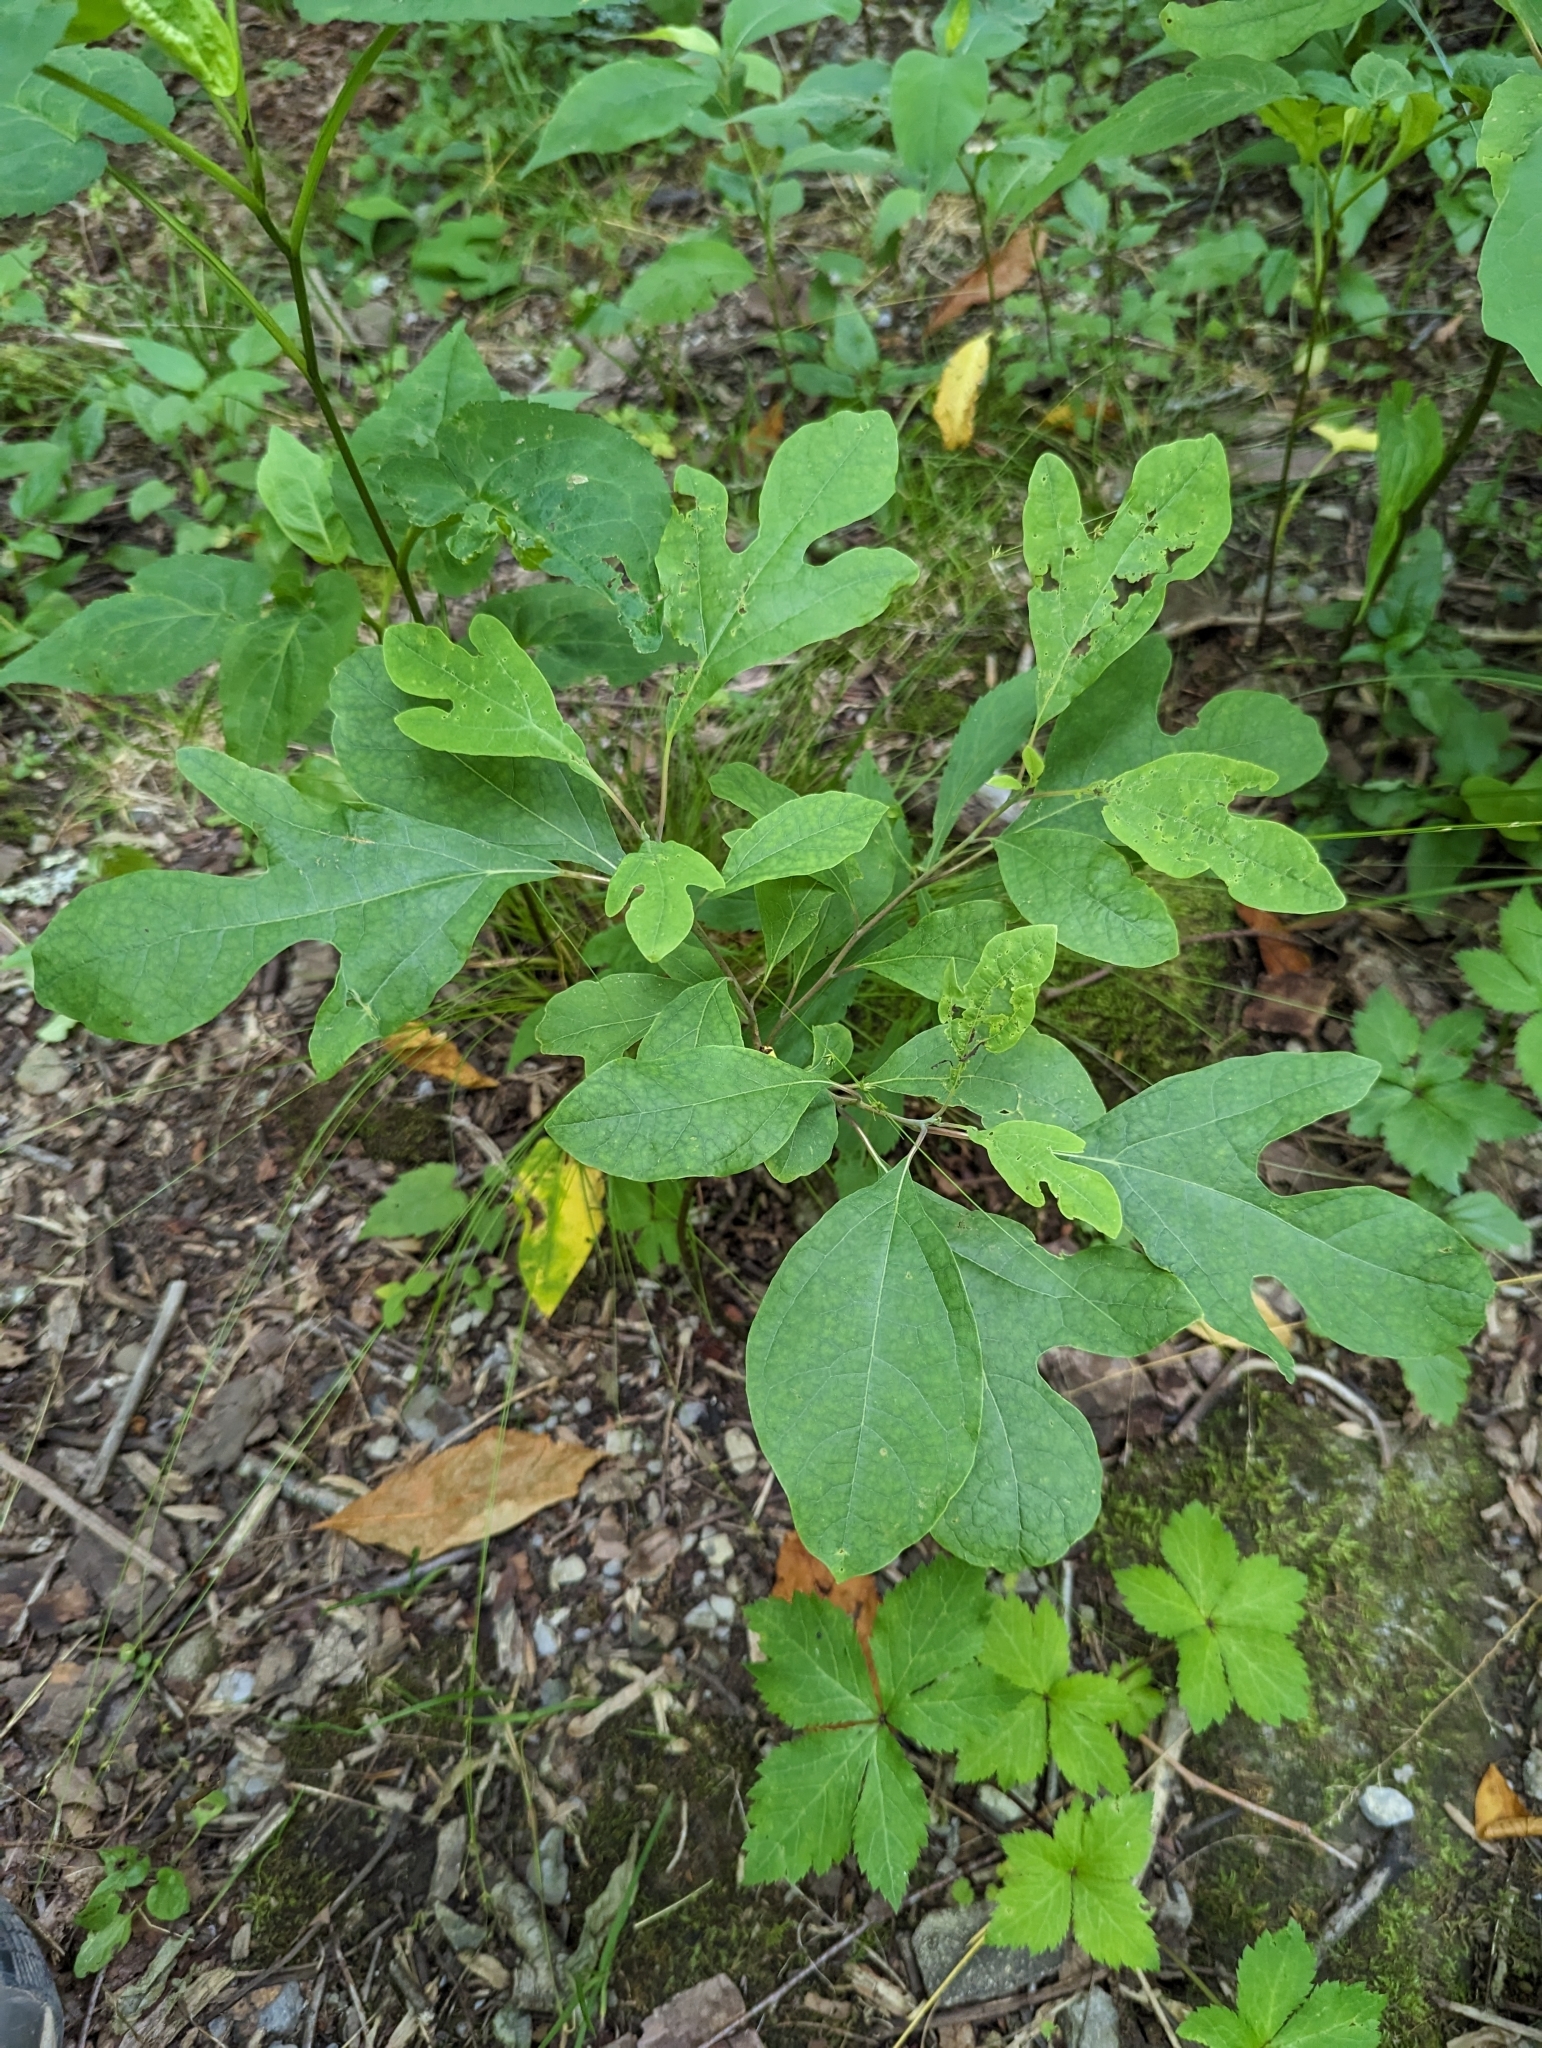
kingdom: Plantae
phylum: Tracheophyta
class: Magnoliopsida
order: Laurales
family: Lauraceae
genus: Sassafras
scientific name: Sassafras albidum
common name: Sassafras
